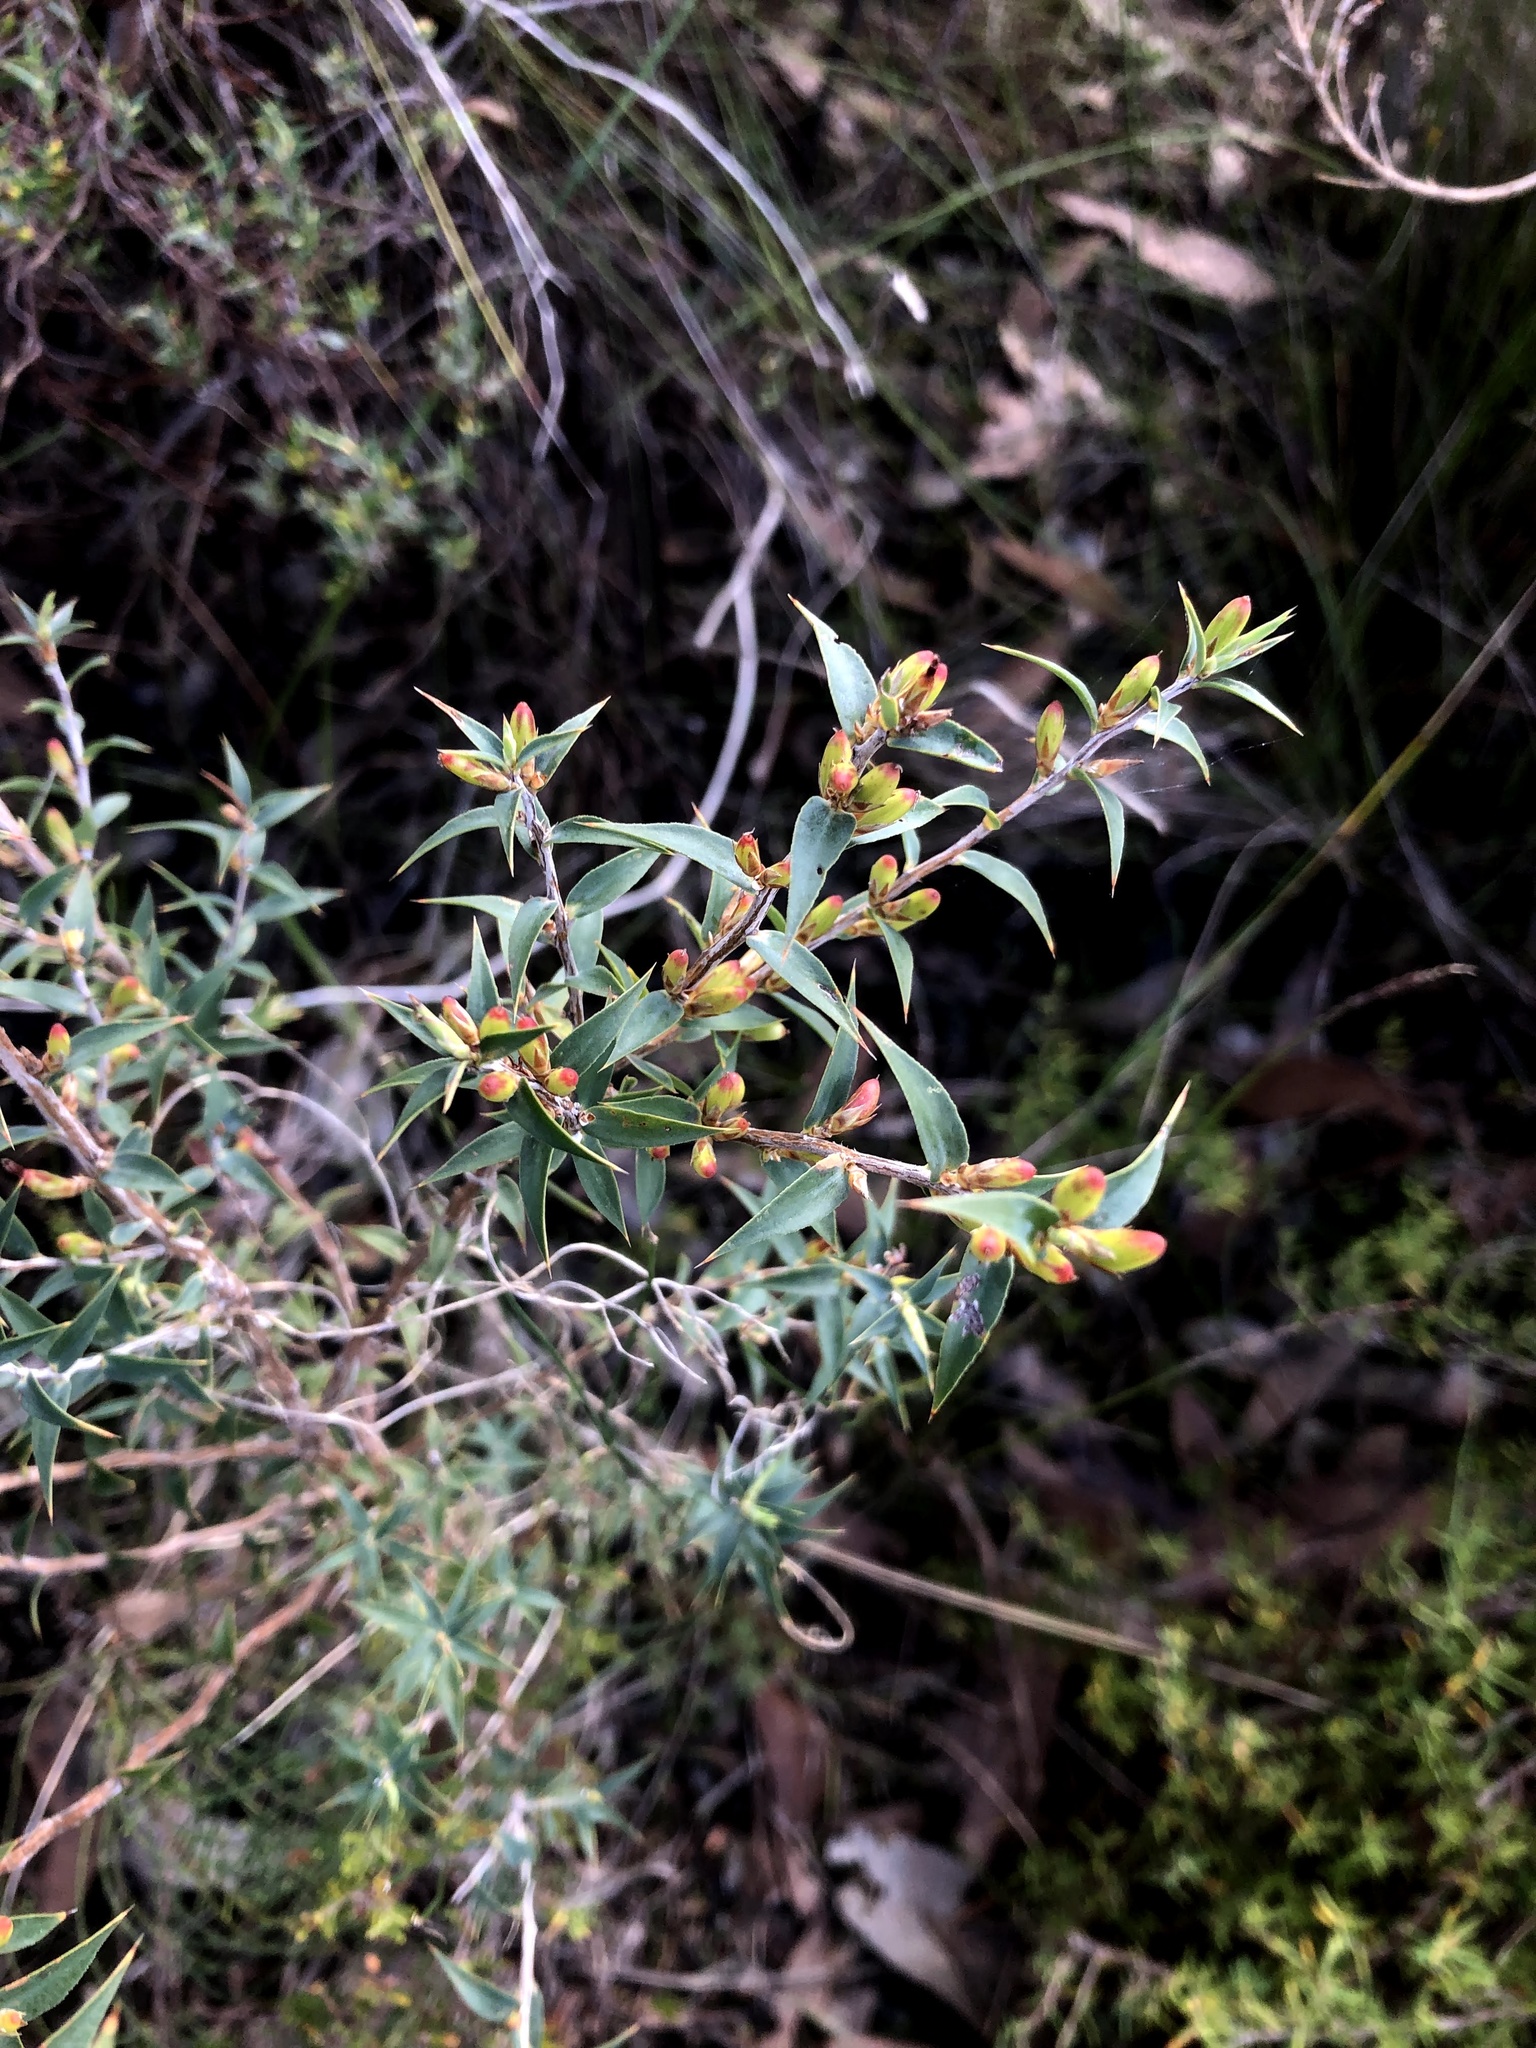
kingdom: Plantae
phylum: Tracheophyta
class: Magnoliopsida
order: Ericales
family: Ericaceae
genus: Styphelia
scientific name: Styphelia rufa
